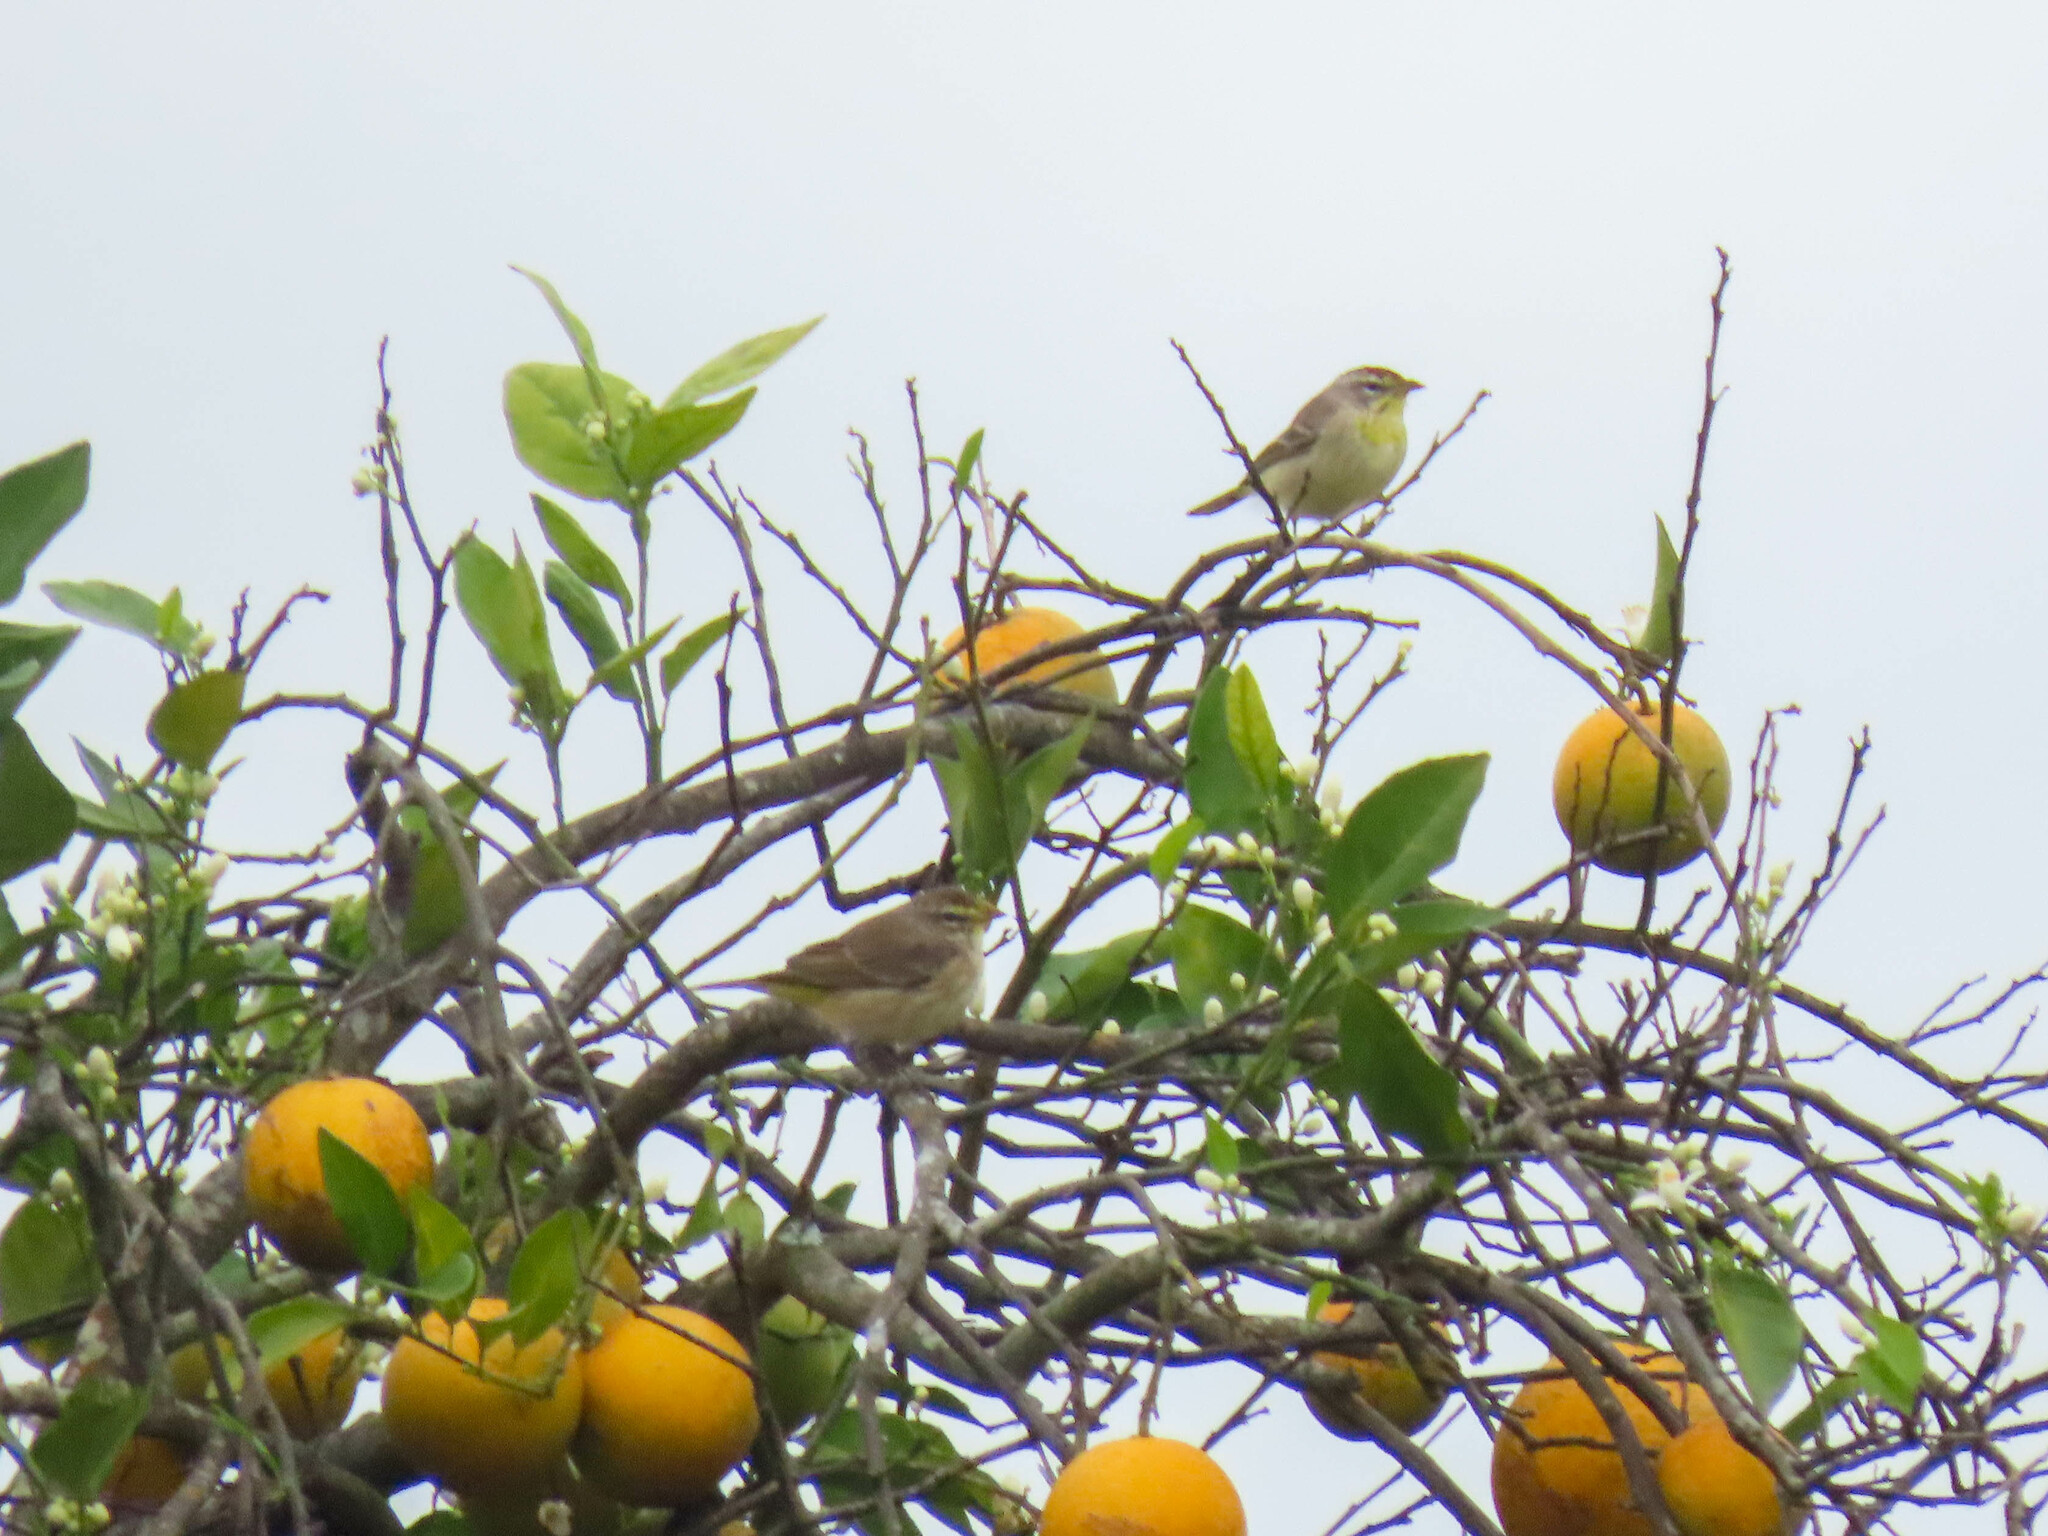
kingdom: Animalia
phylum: Chordata
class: Aves
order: Passeriformes
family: Parulidae
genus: Setophaga
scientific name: Setophaga palmarum
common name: Palm warbler
